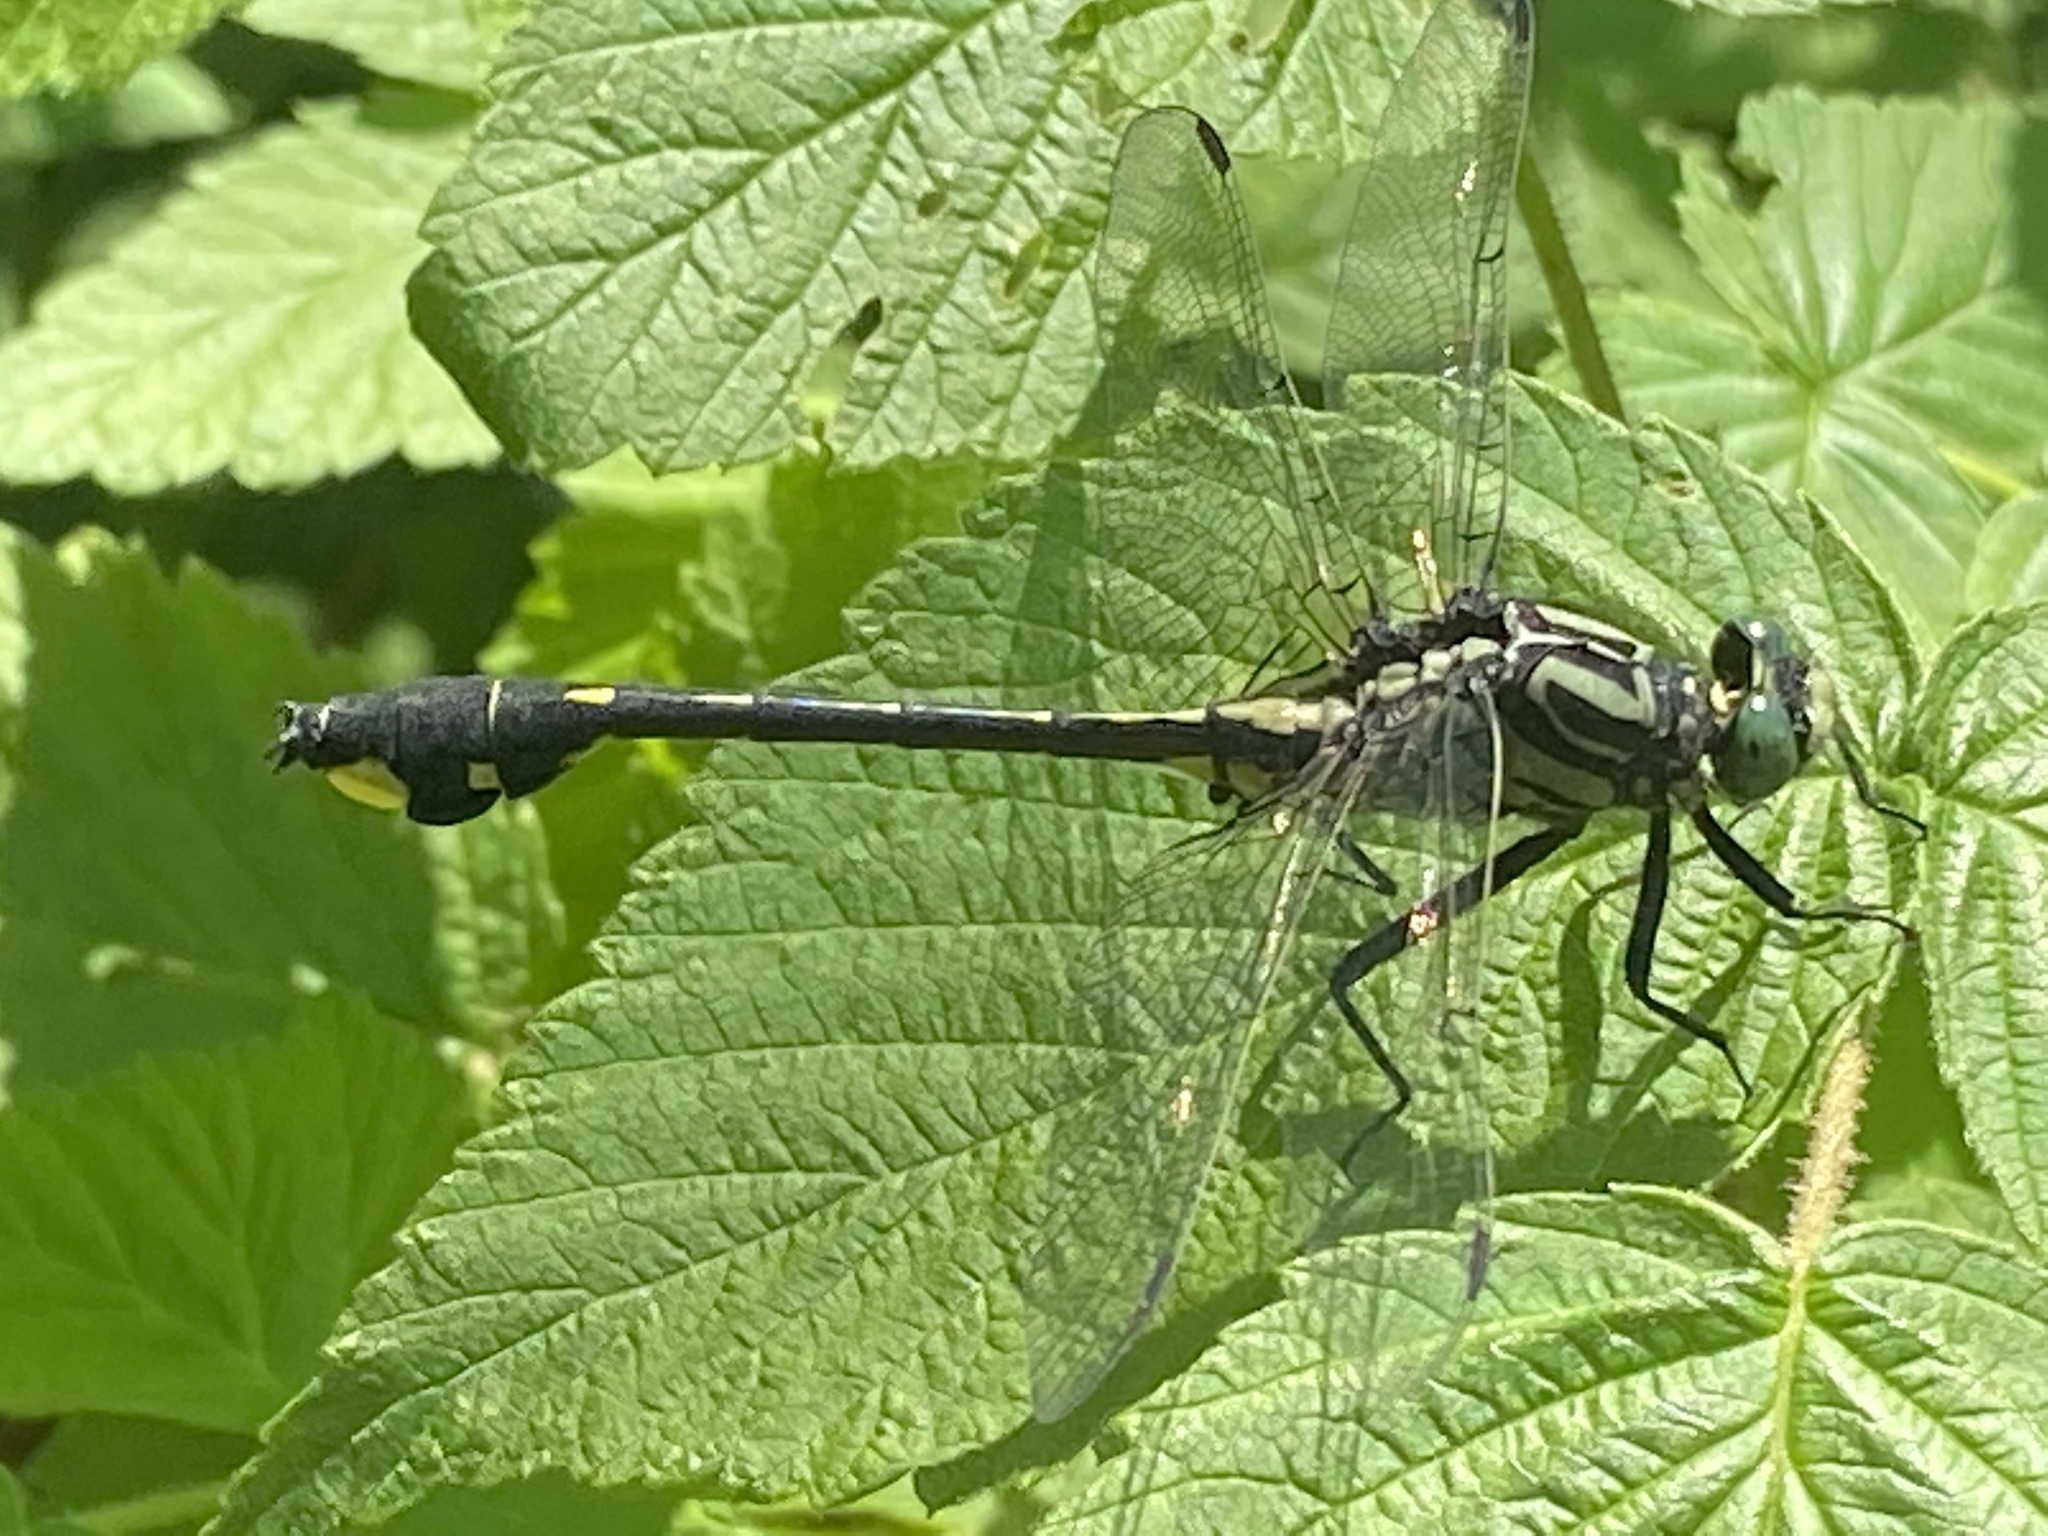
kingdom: Animalia
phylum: Arthropoda
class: Insecta
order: Odonata
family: Gomphidae
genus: Gomphurus
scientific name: Gomphurus vastus
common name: Cobra clubtail
